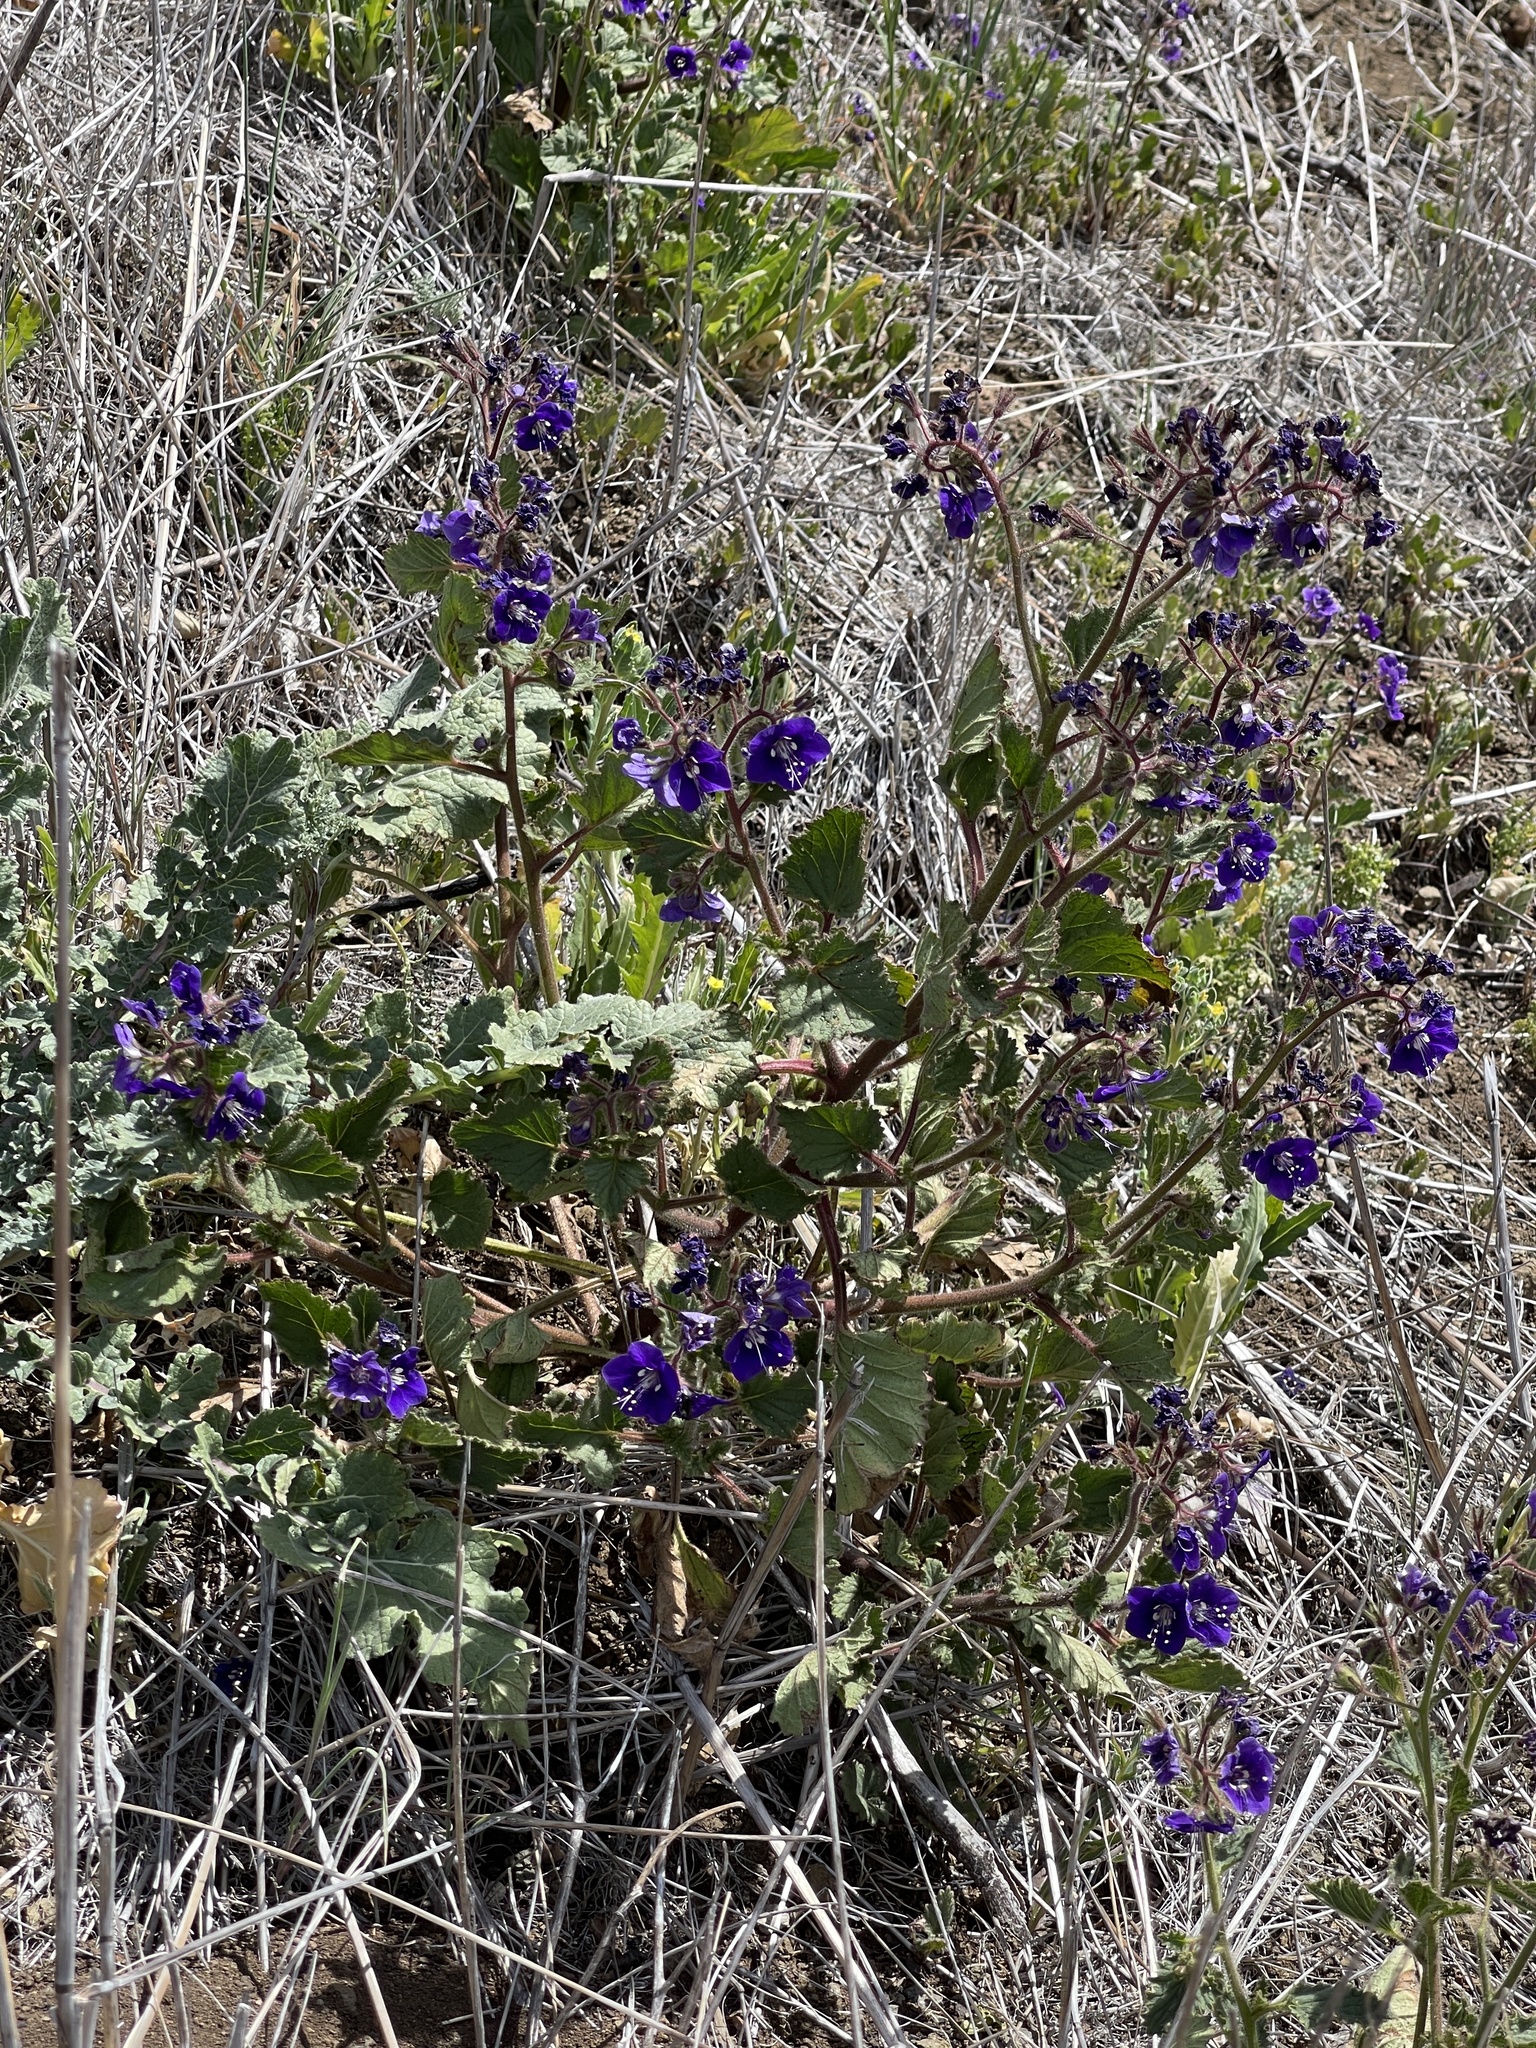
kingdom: Plantae
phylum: Tracheophyta
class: Magnoliopsida
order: Boraginales
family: Hydrophyllaceae
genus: Phacelia
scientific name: Phacelia parryi
